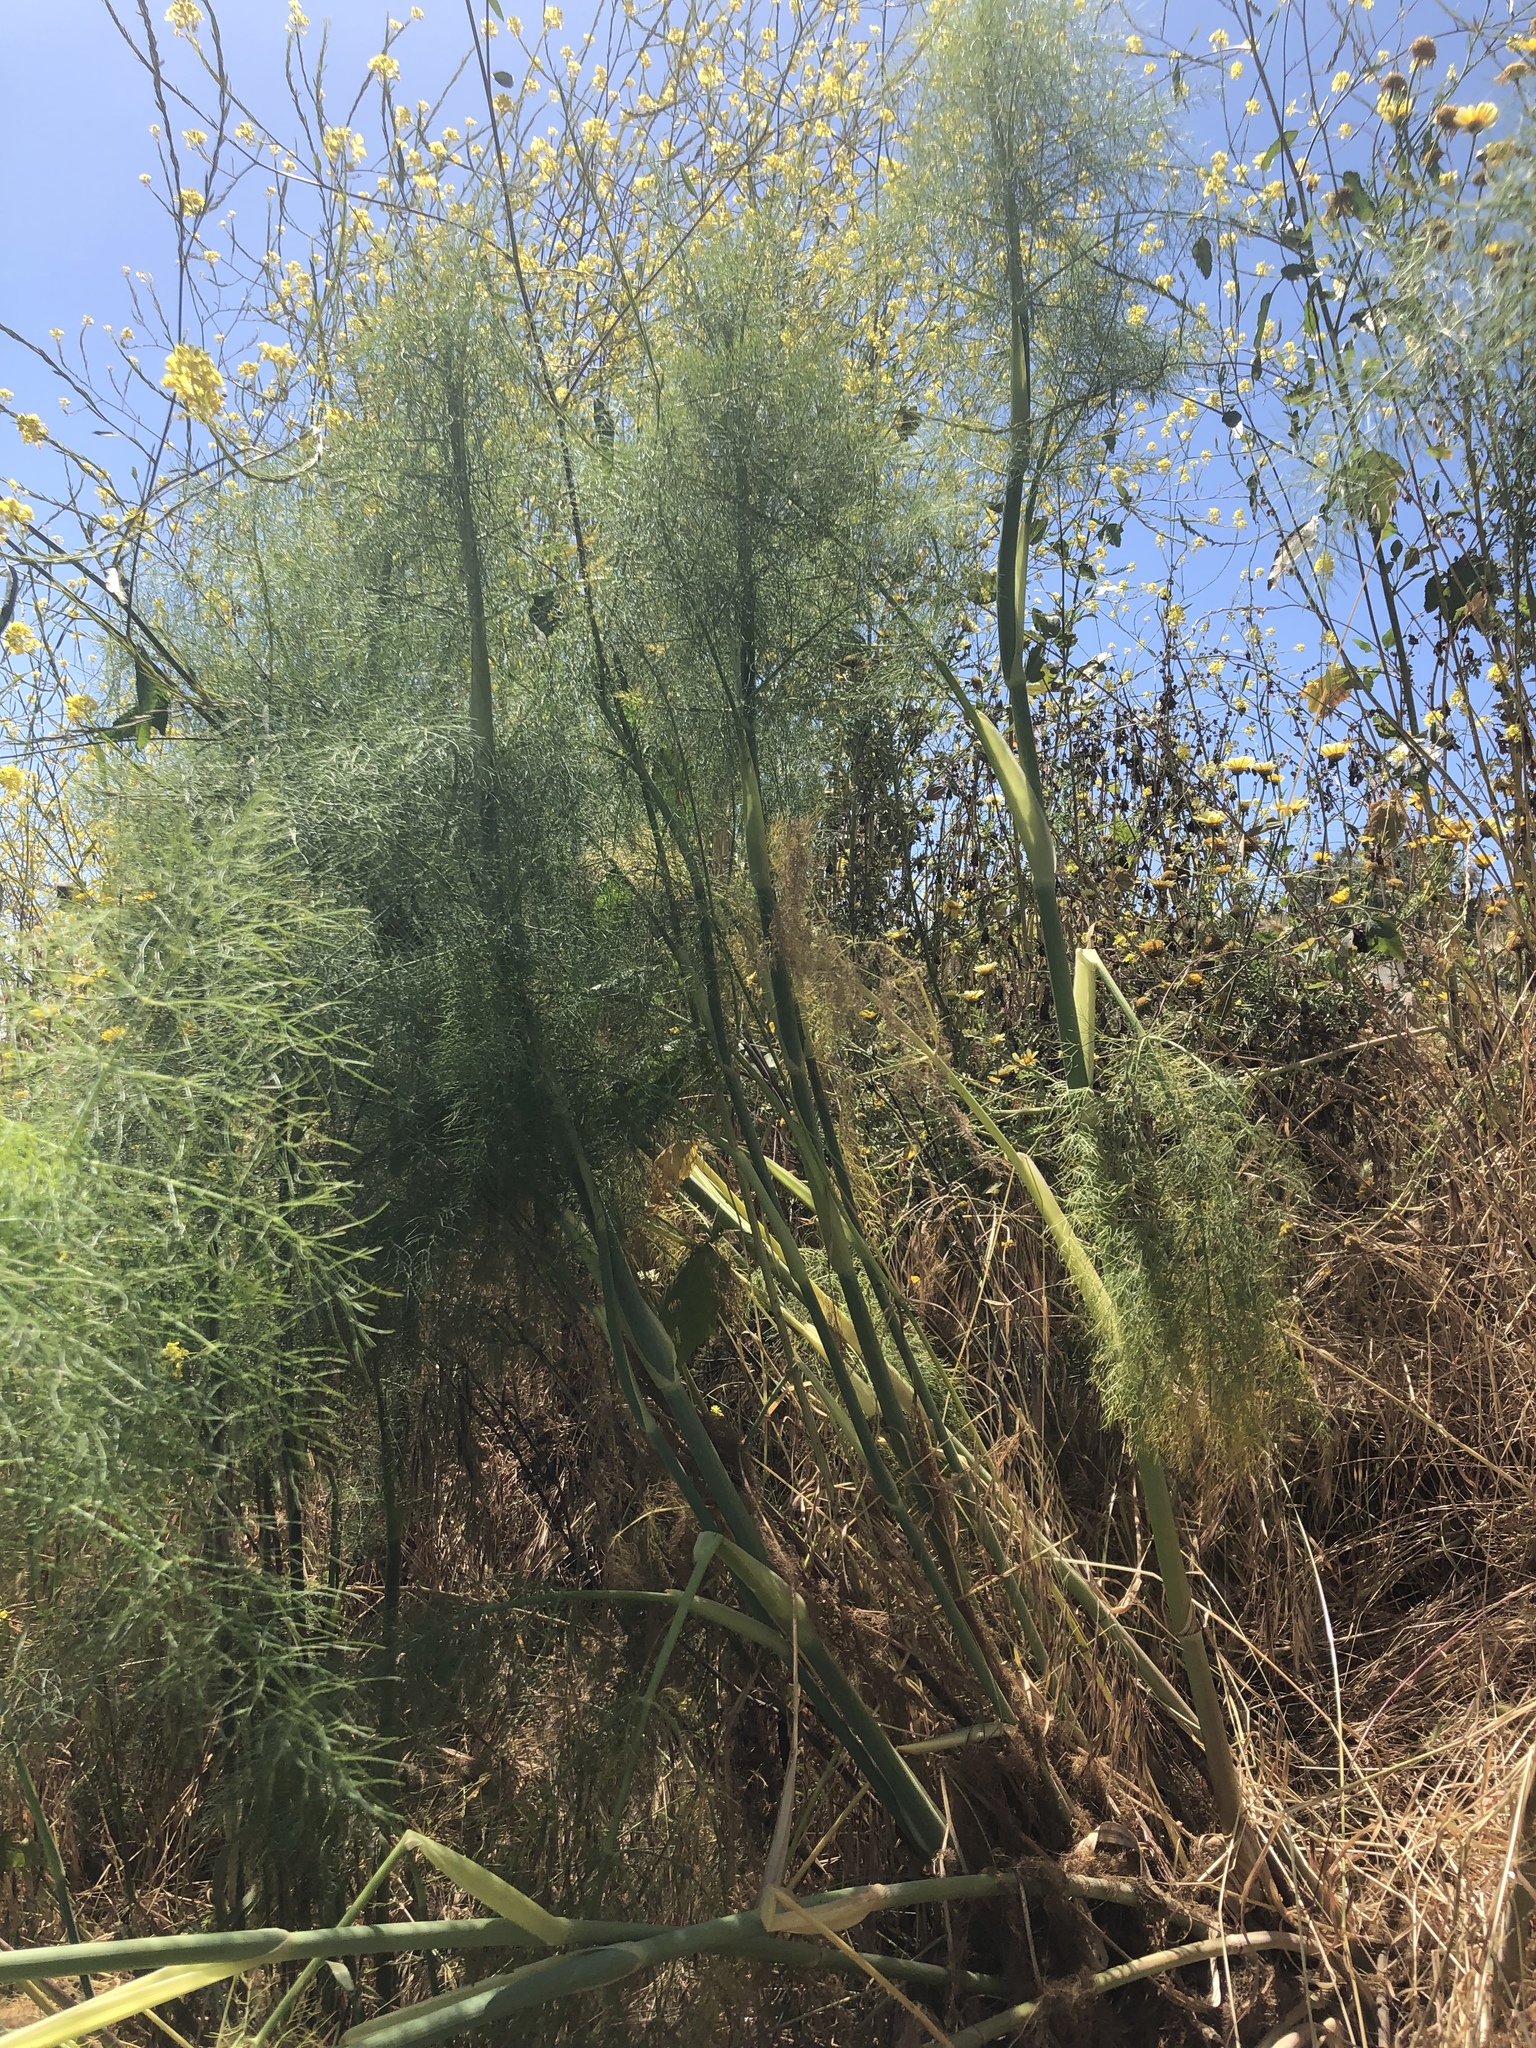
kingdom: Plantae
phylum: Tracheophyta
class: Magnoliopsida
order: Apiales
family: Apiaceae
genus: Foeniculum
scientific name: Foeniculum vulgare
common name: Fennel
